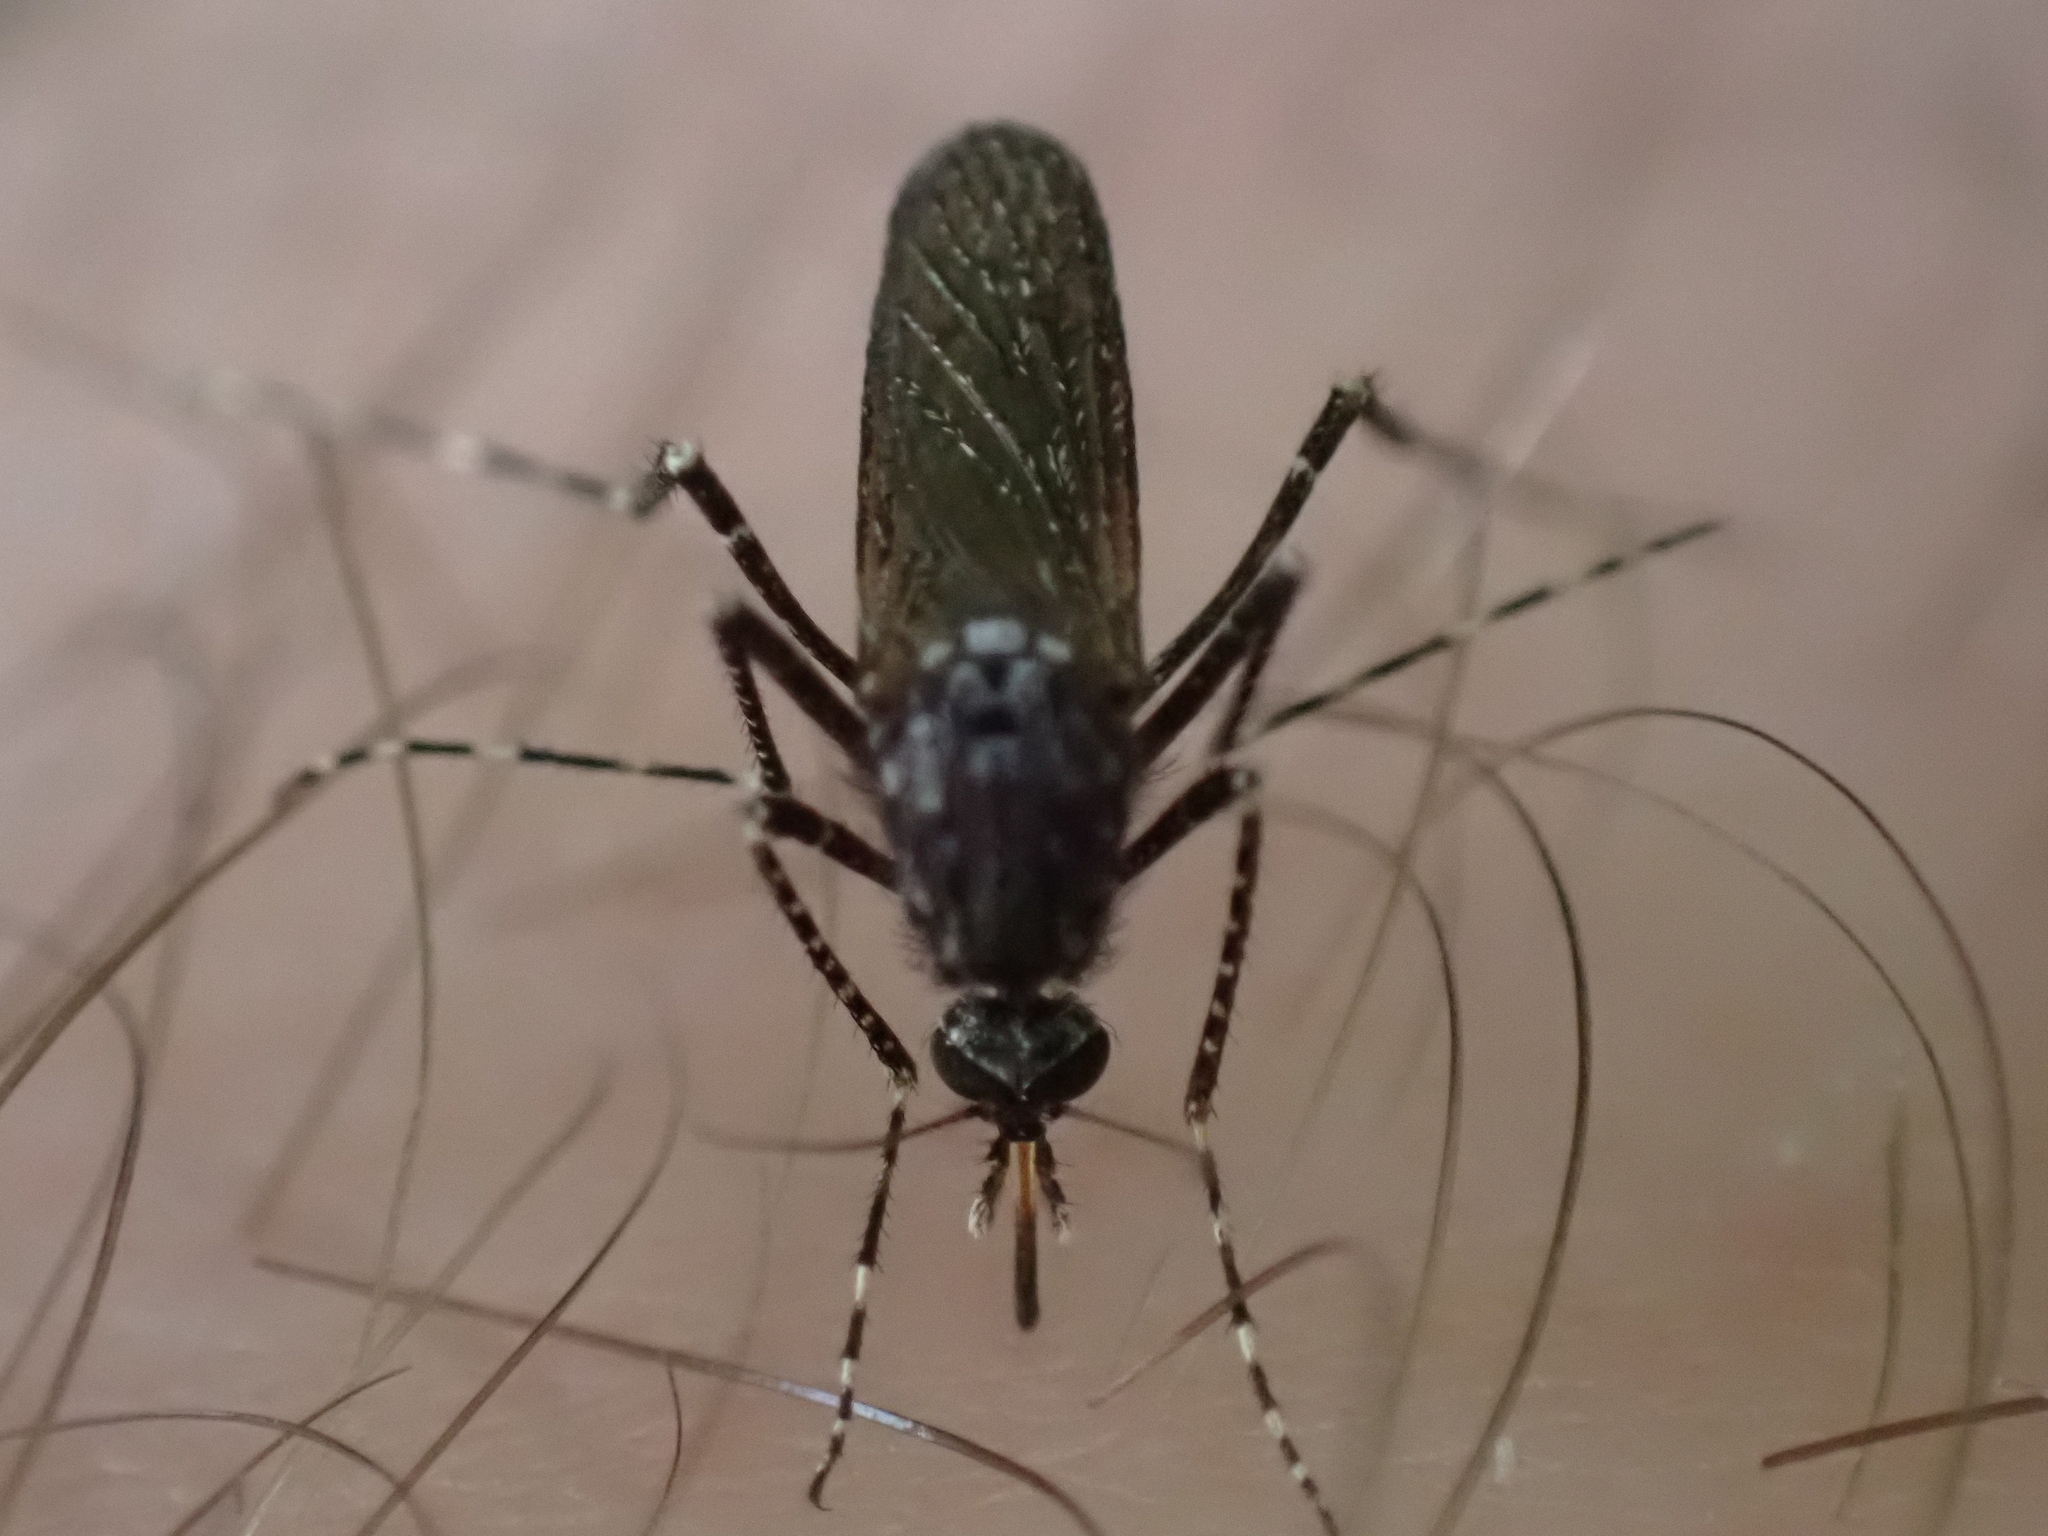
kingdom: Animalia
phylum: Arthropoda
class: Insecta
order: Diptera
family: Culicidae
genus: Psorophora
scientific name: Psorophora columbiae
